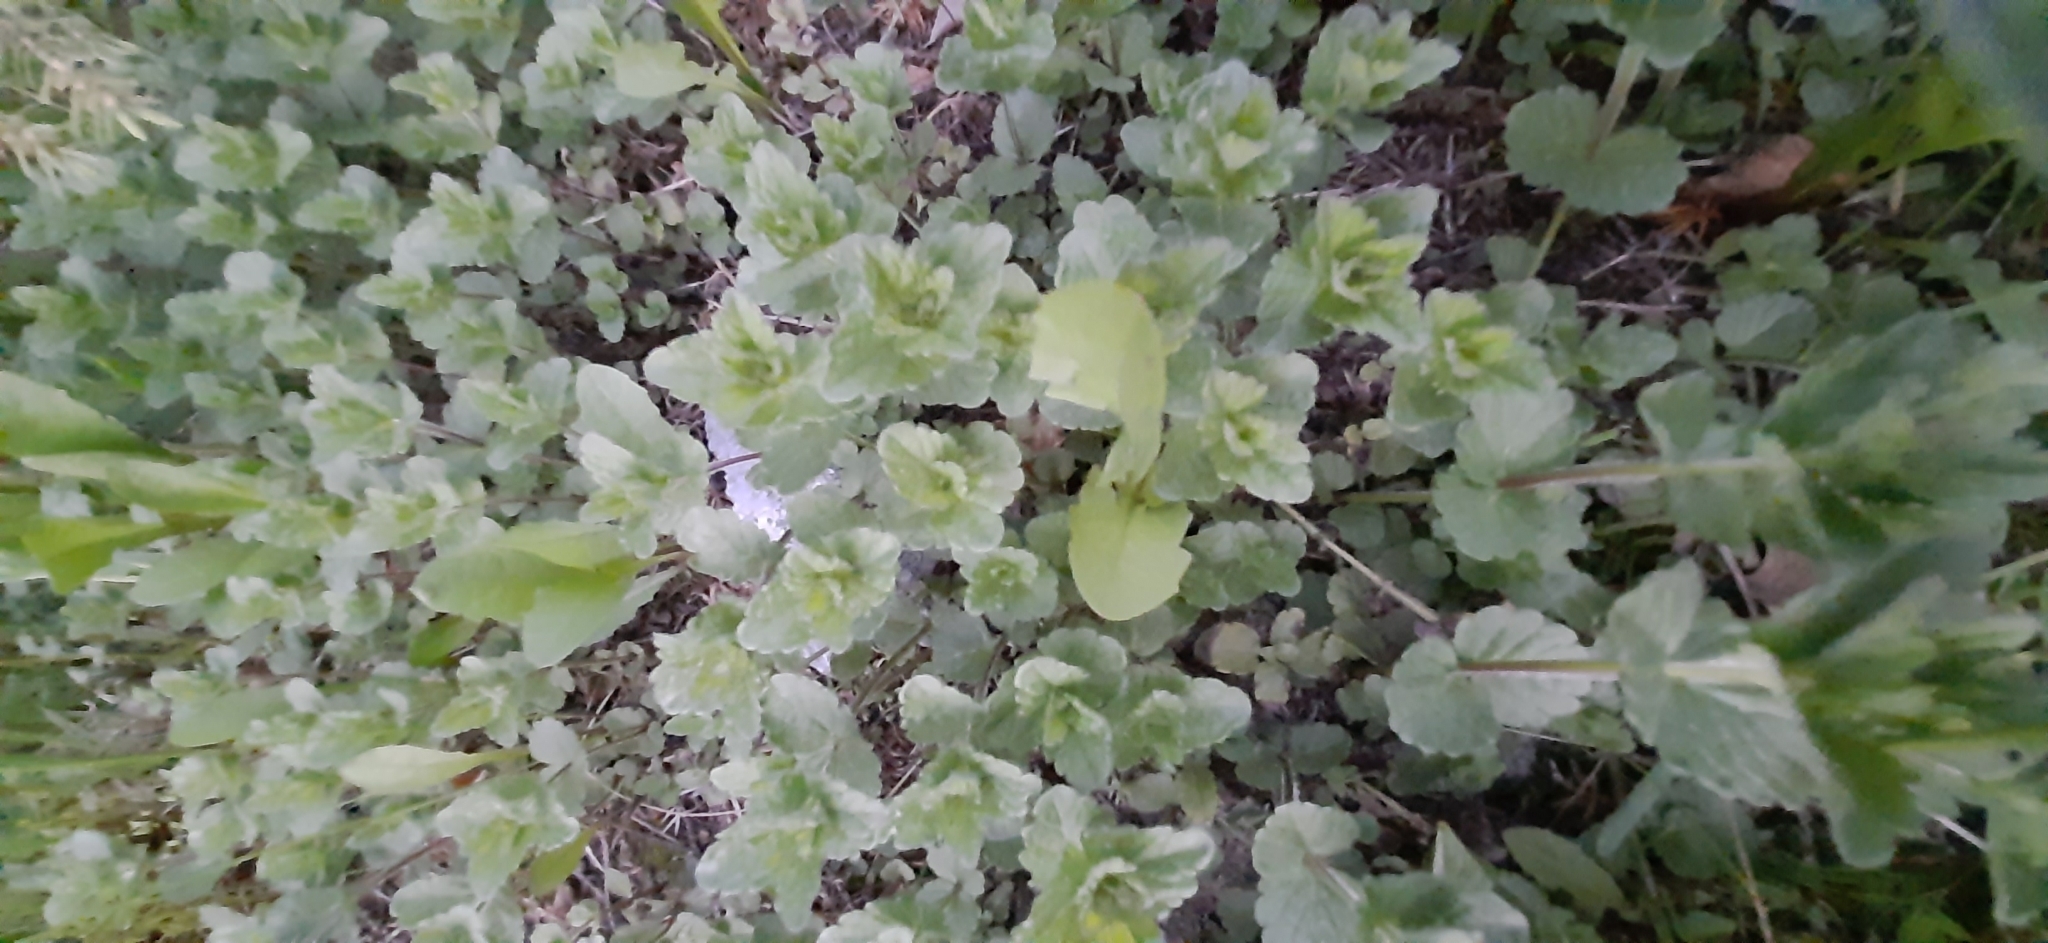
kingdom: Plantae
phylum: Tracheophyta
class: Magnoliopsida
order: Lamiales
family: Plantaginaceae
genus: Veronica
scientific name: Veronica chamaedrys
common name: Germander speedwell
